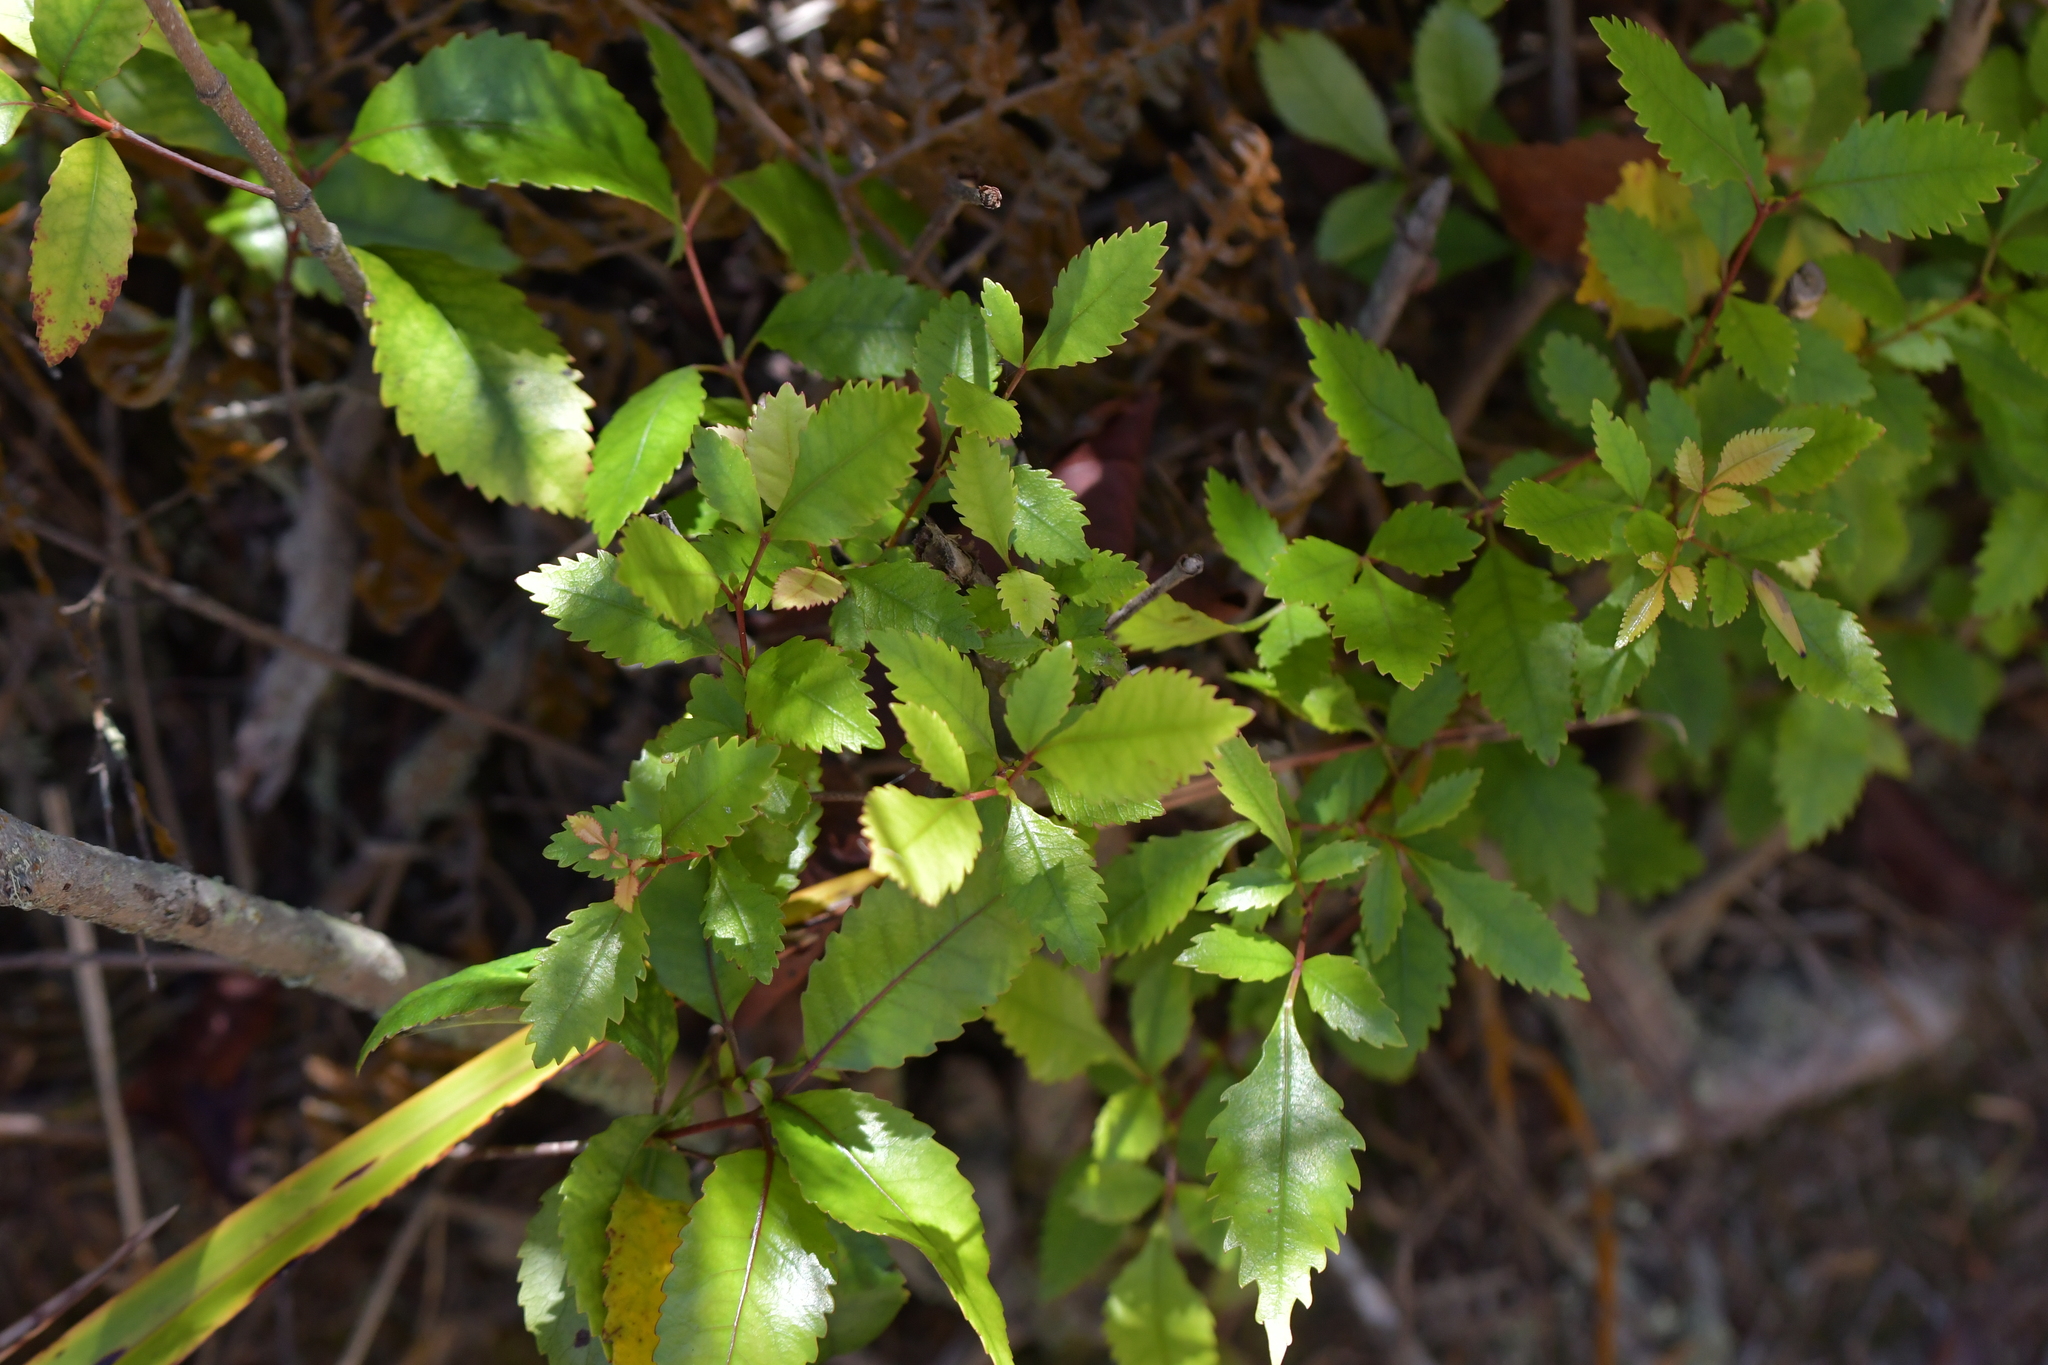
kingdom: Plantae
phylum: Tracheophyta
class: Magnoliopsida
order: Oxalidales
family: Cunoniaceae
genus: Pterophylla
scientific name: Pterophylla racemosa
